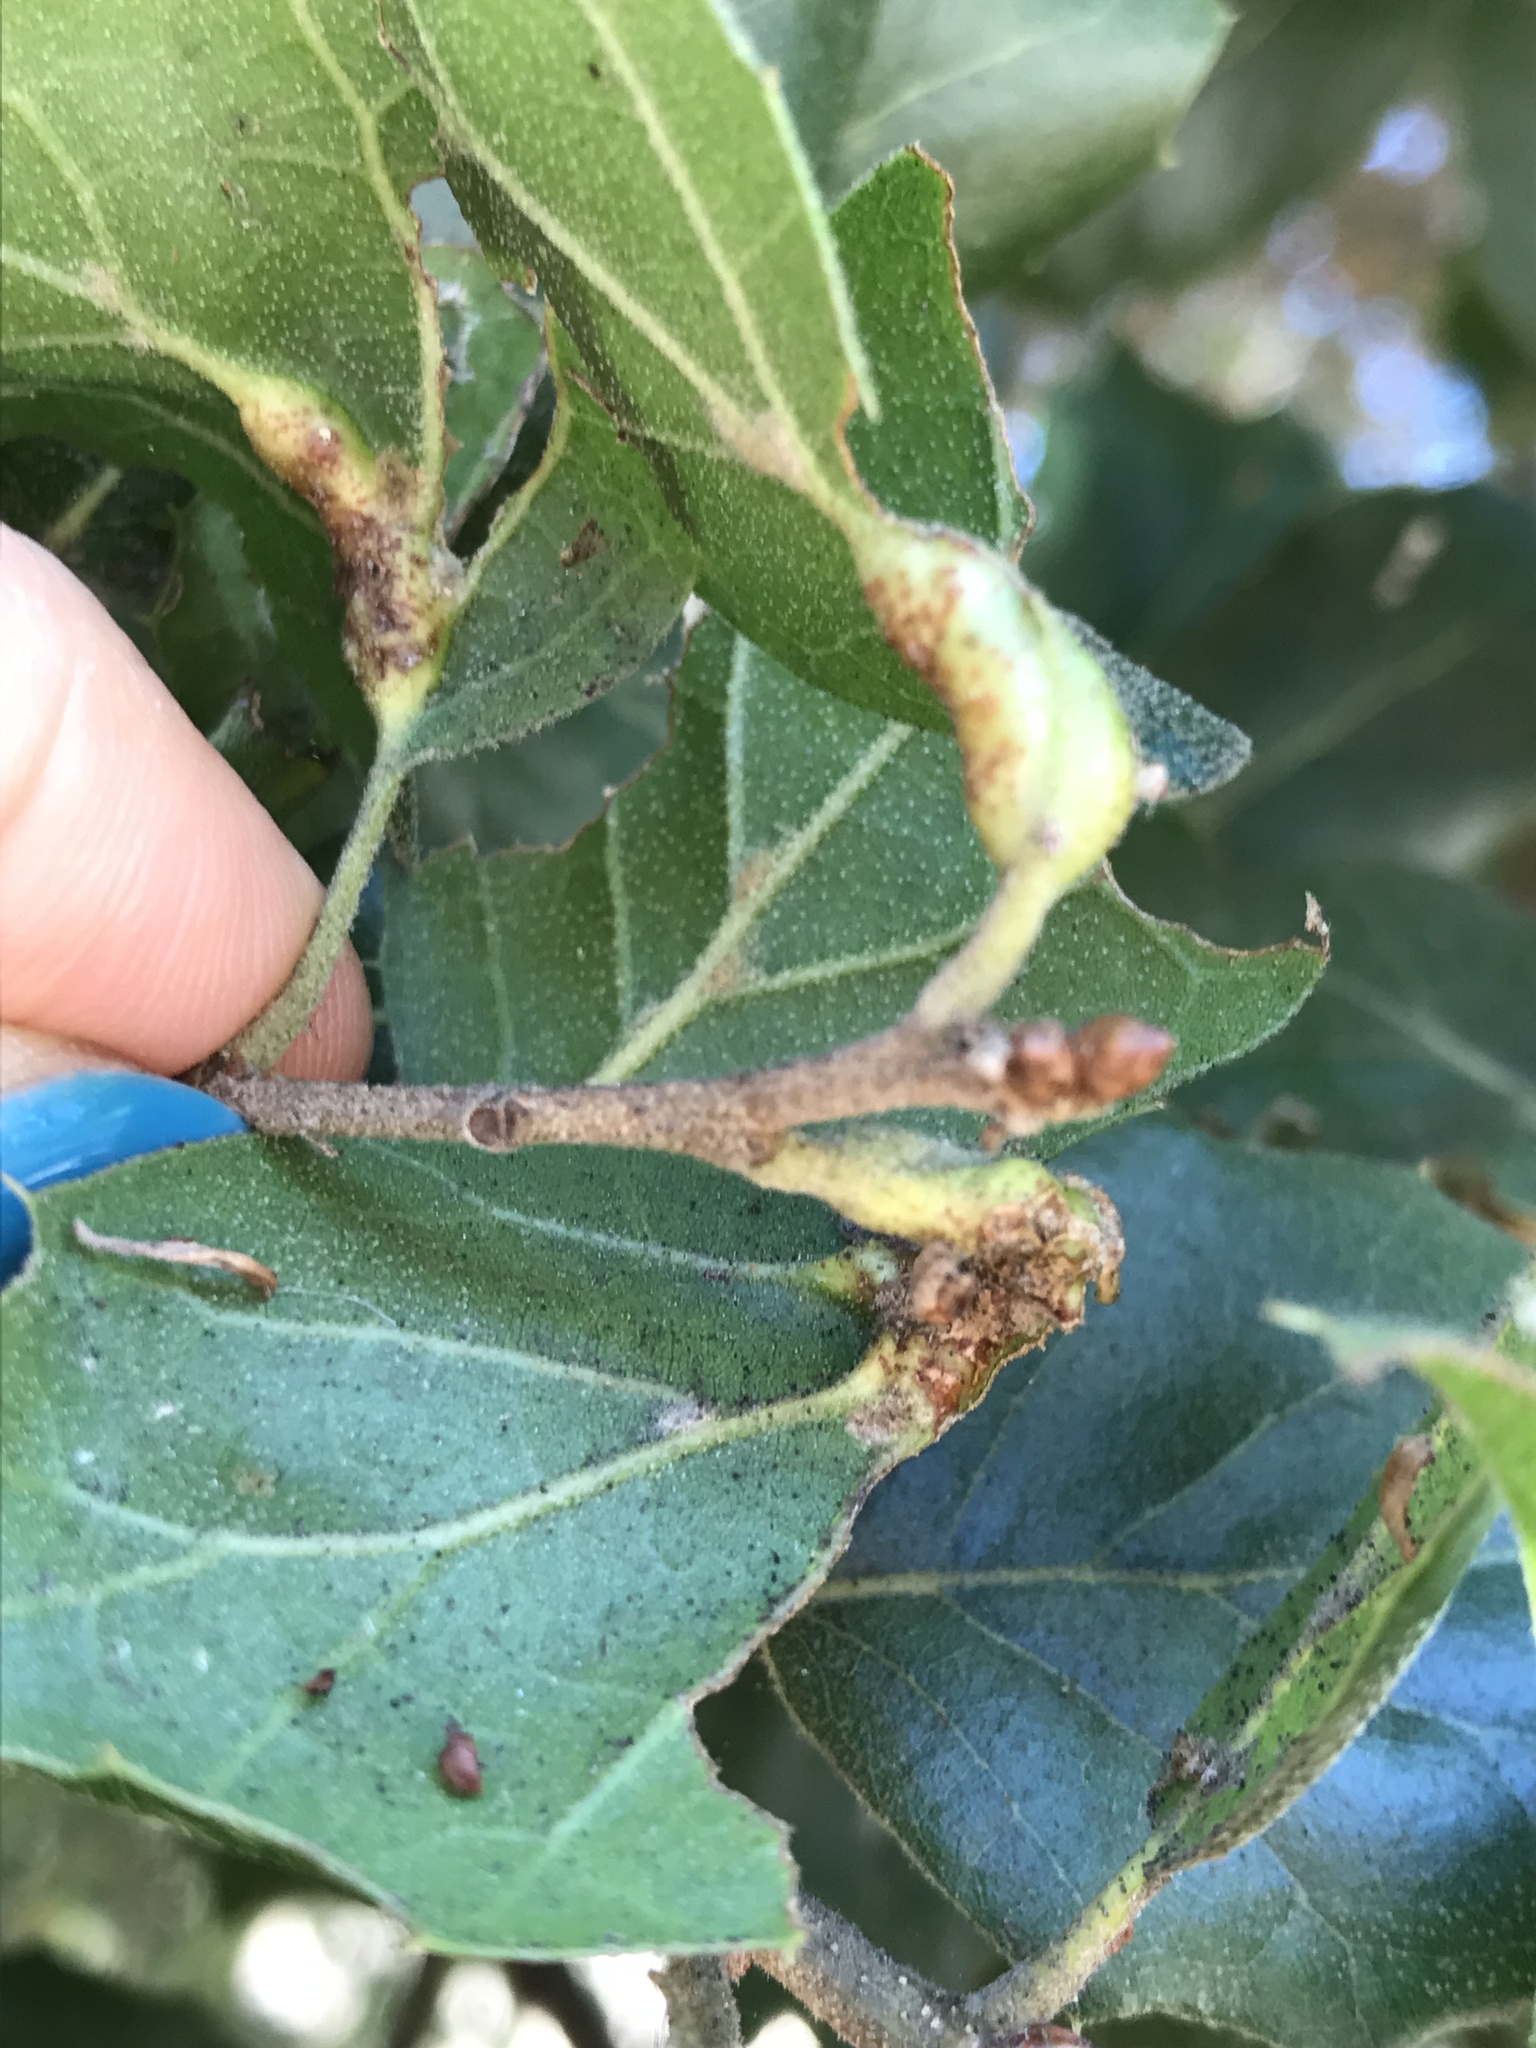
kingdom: Animalia
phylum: Arthropoda
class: Insecta
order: Hymenoptera
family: Cynipidae
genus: Melikaiella
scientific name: Melikaiella
